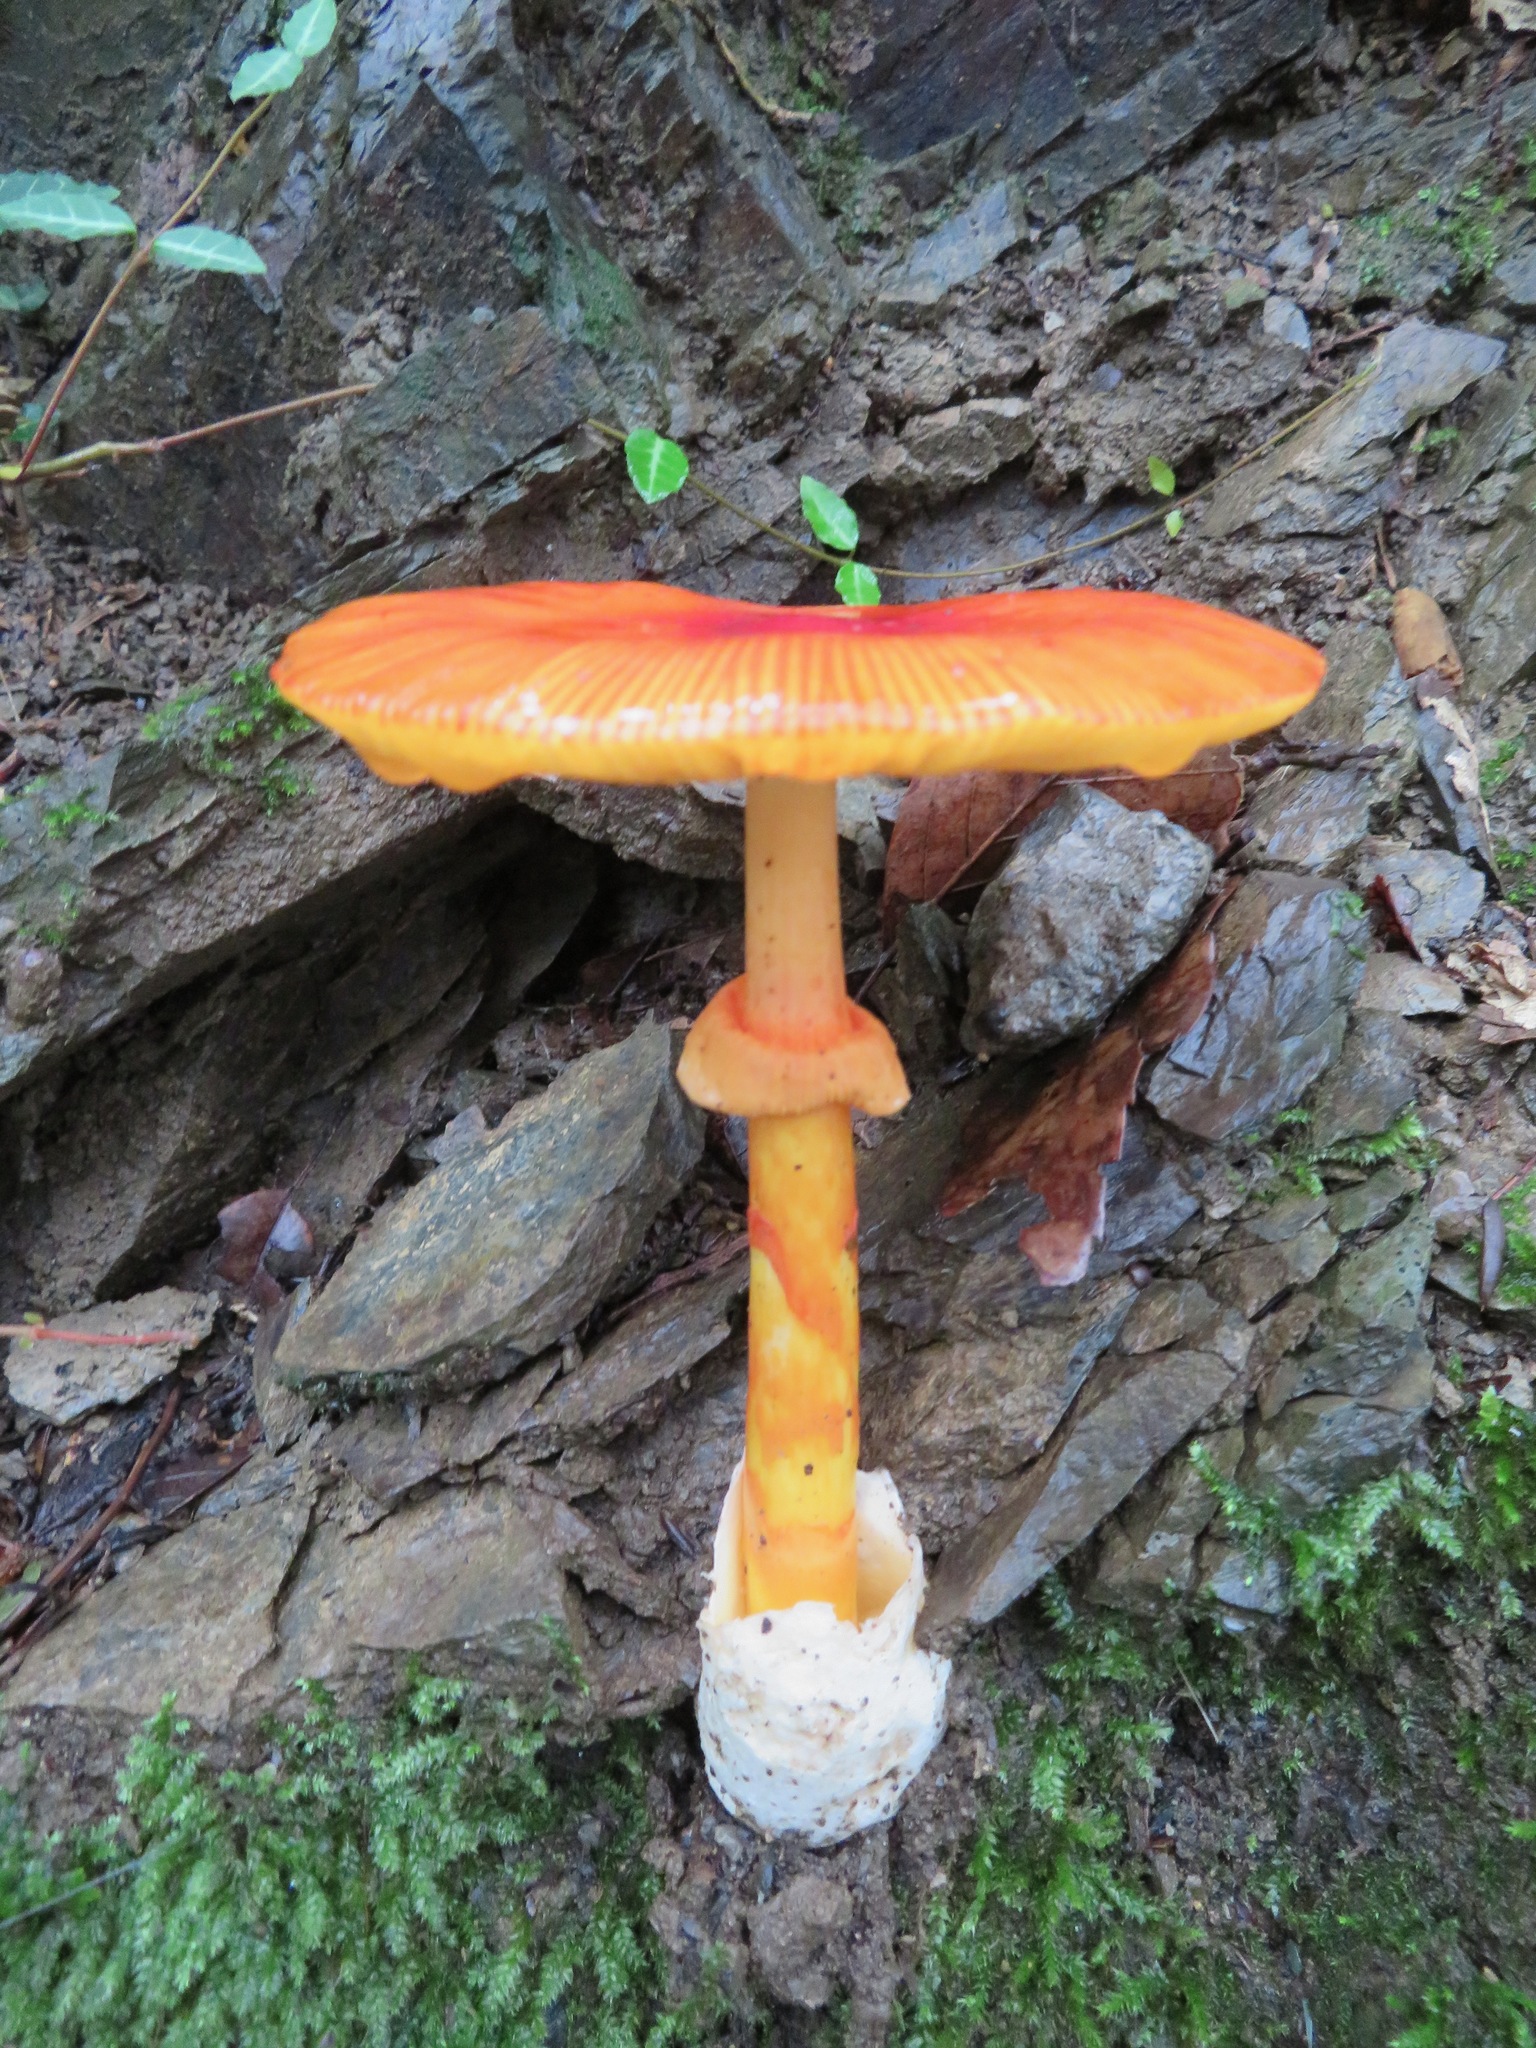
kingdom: Fungi
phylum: Basidiomycota
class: Agaricomycetes
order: Agaricales
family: Amanitaceae
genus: Amanita
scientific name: Amanita caesareoides
